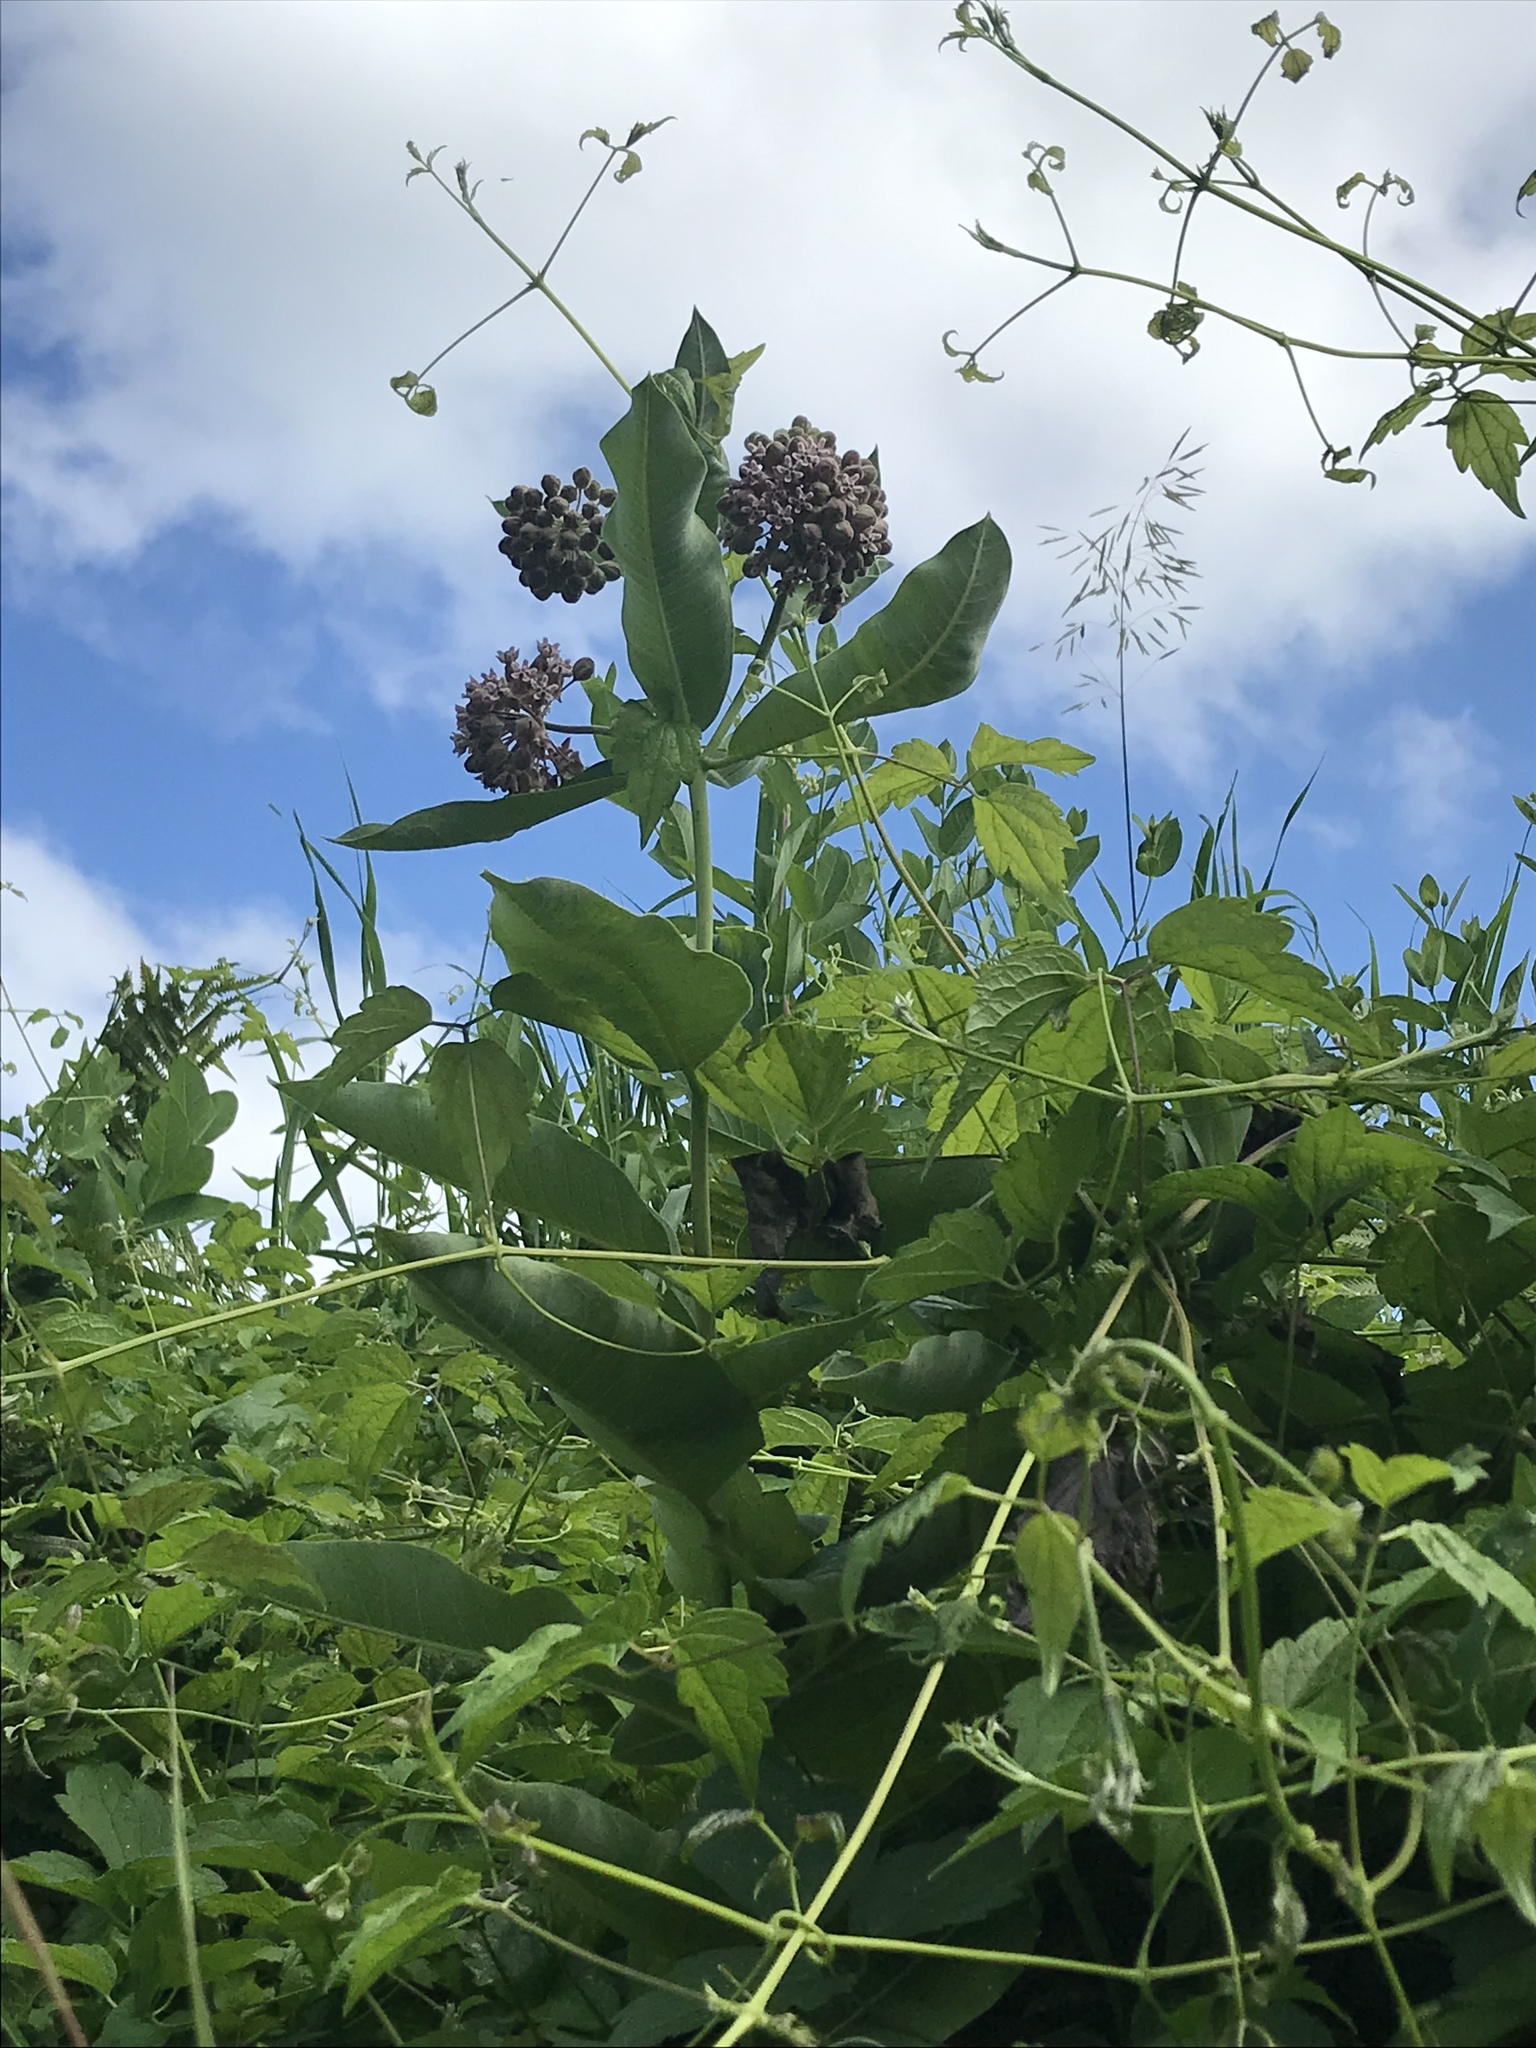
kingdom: Plantae
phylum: Tracheophyta
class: Magnoliopsida
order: Gentianales
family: Apocynaceae
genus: Asclepias
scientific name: Asclepias syriaca
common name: Common milkweed
